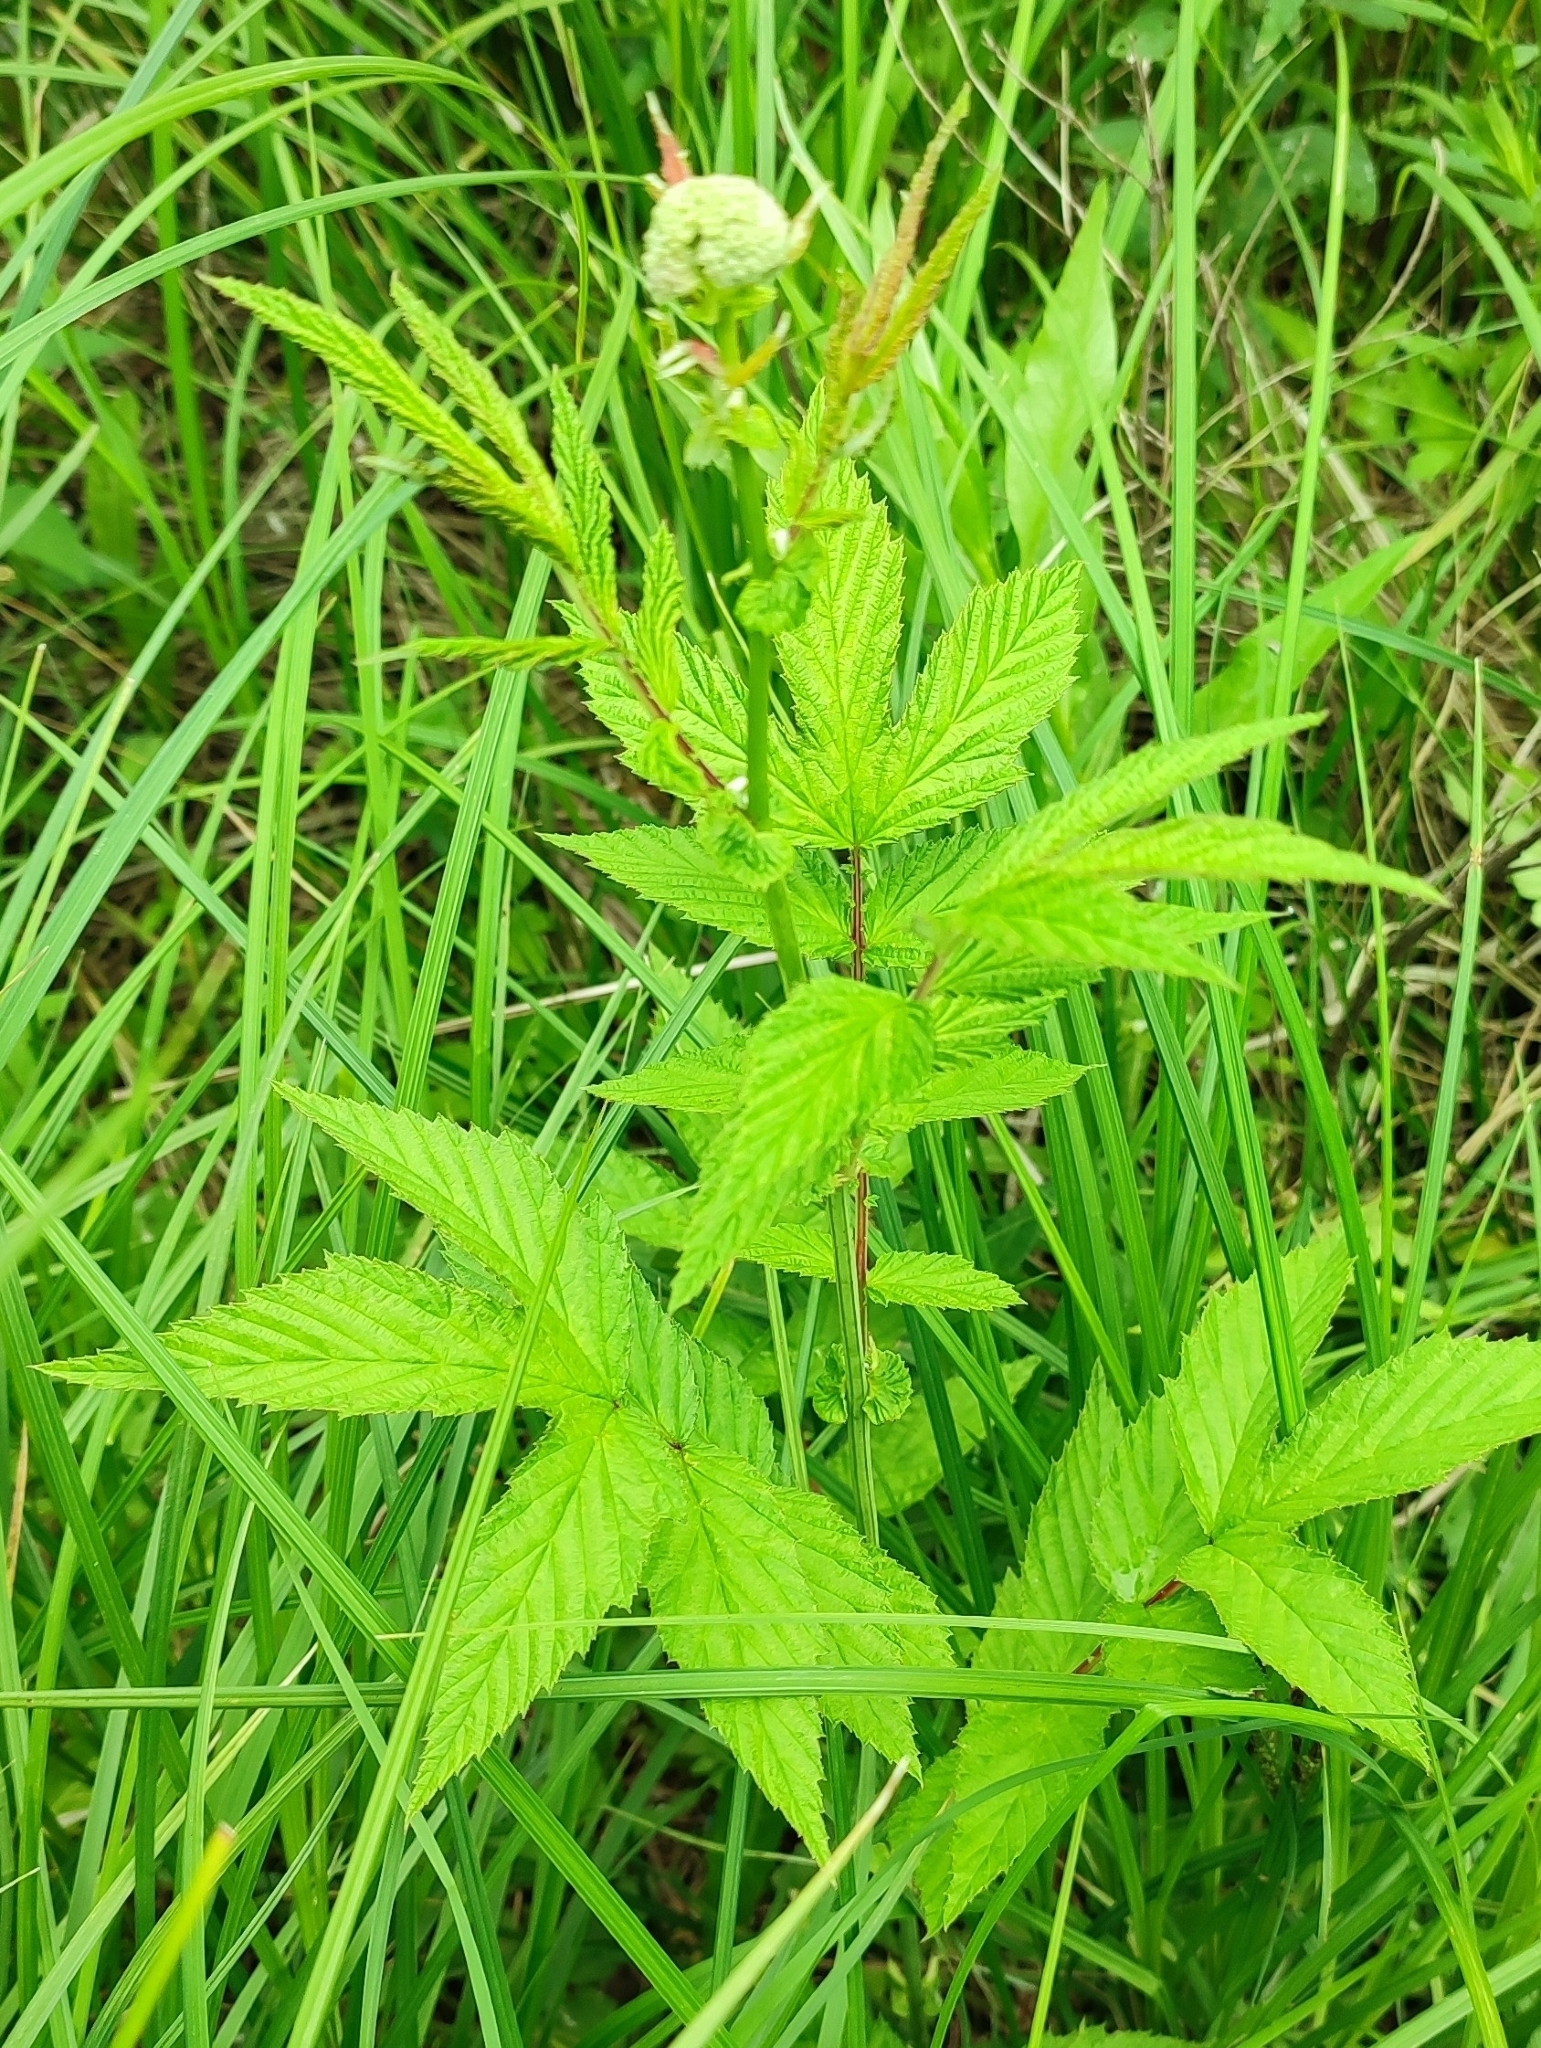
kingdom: Plantae
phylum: Tracheophyta
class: Magnoliopsida
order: Rosales
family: Rosaceae
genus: Filipendula
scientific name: Filipendula ulmaria
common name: Meadowsweet
